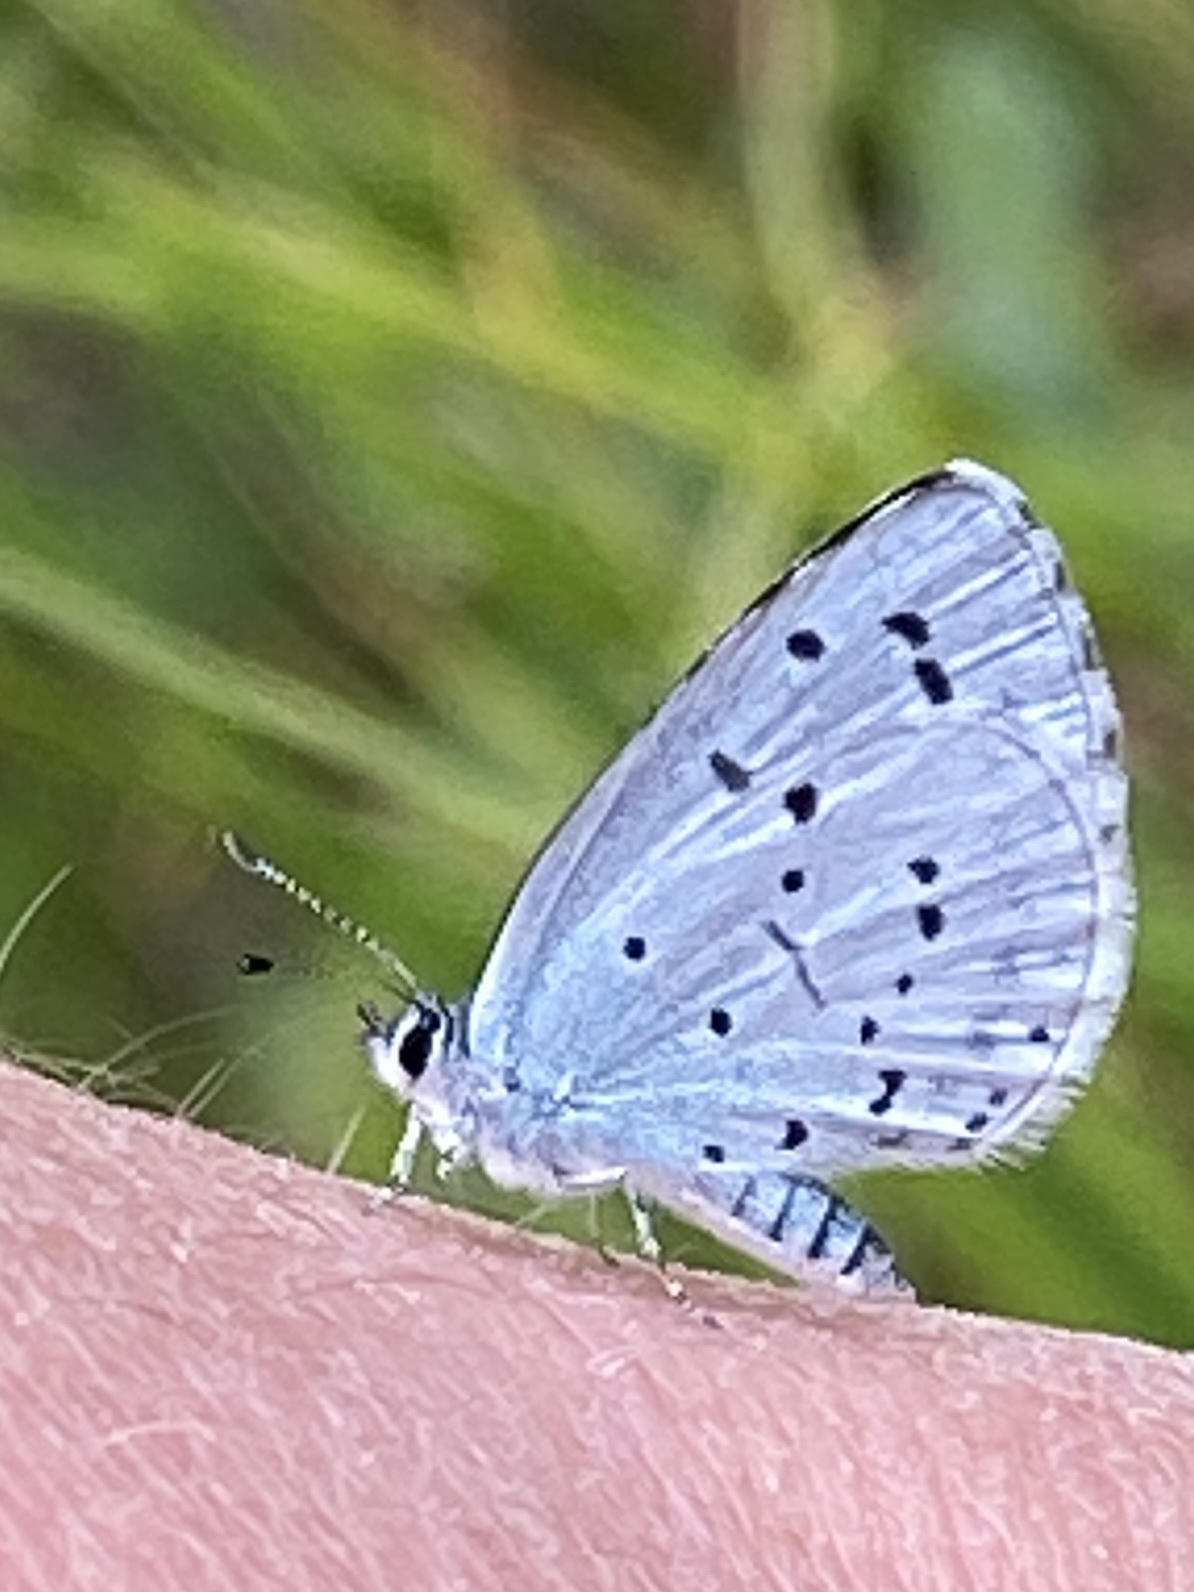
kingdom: Animalia
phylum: Arthropoda
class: Insecta
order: Lepidoptera
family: Lycaenidae
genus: Celastrina
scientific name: Celastrina argiolus
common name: Holly blue
